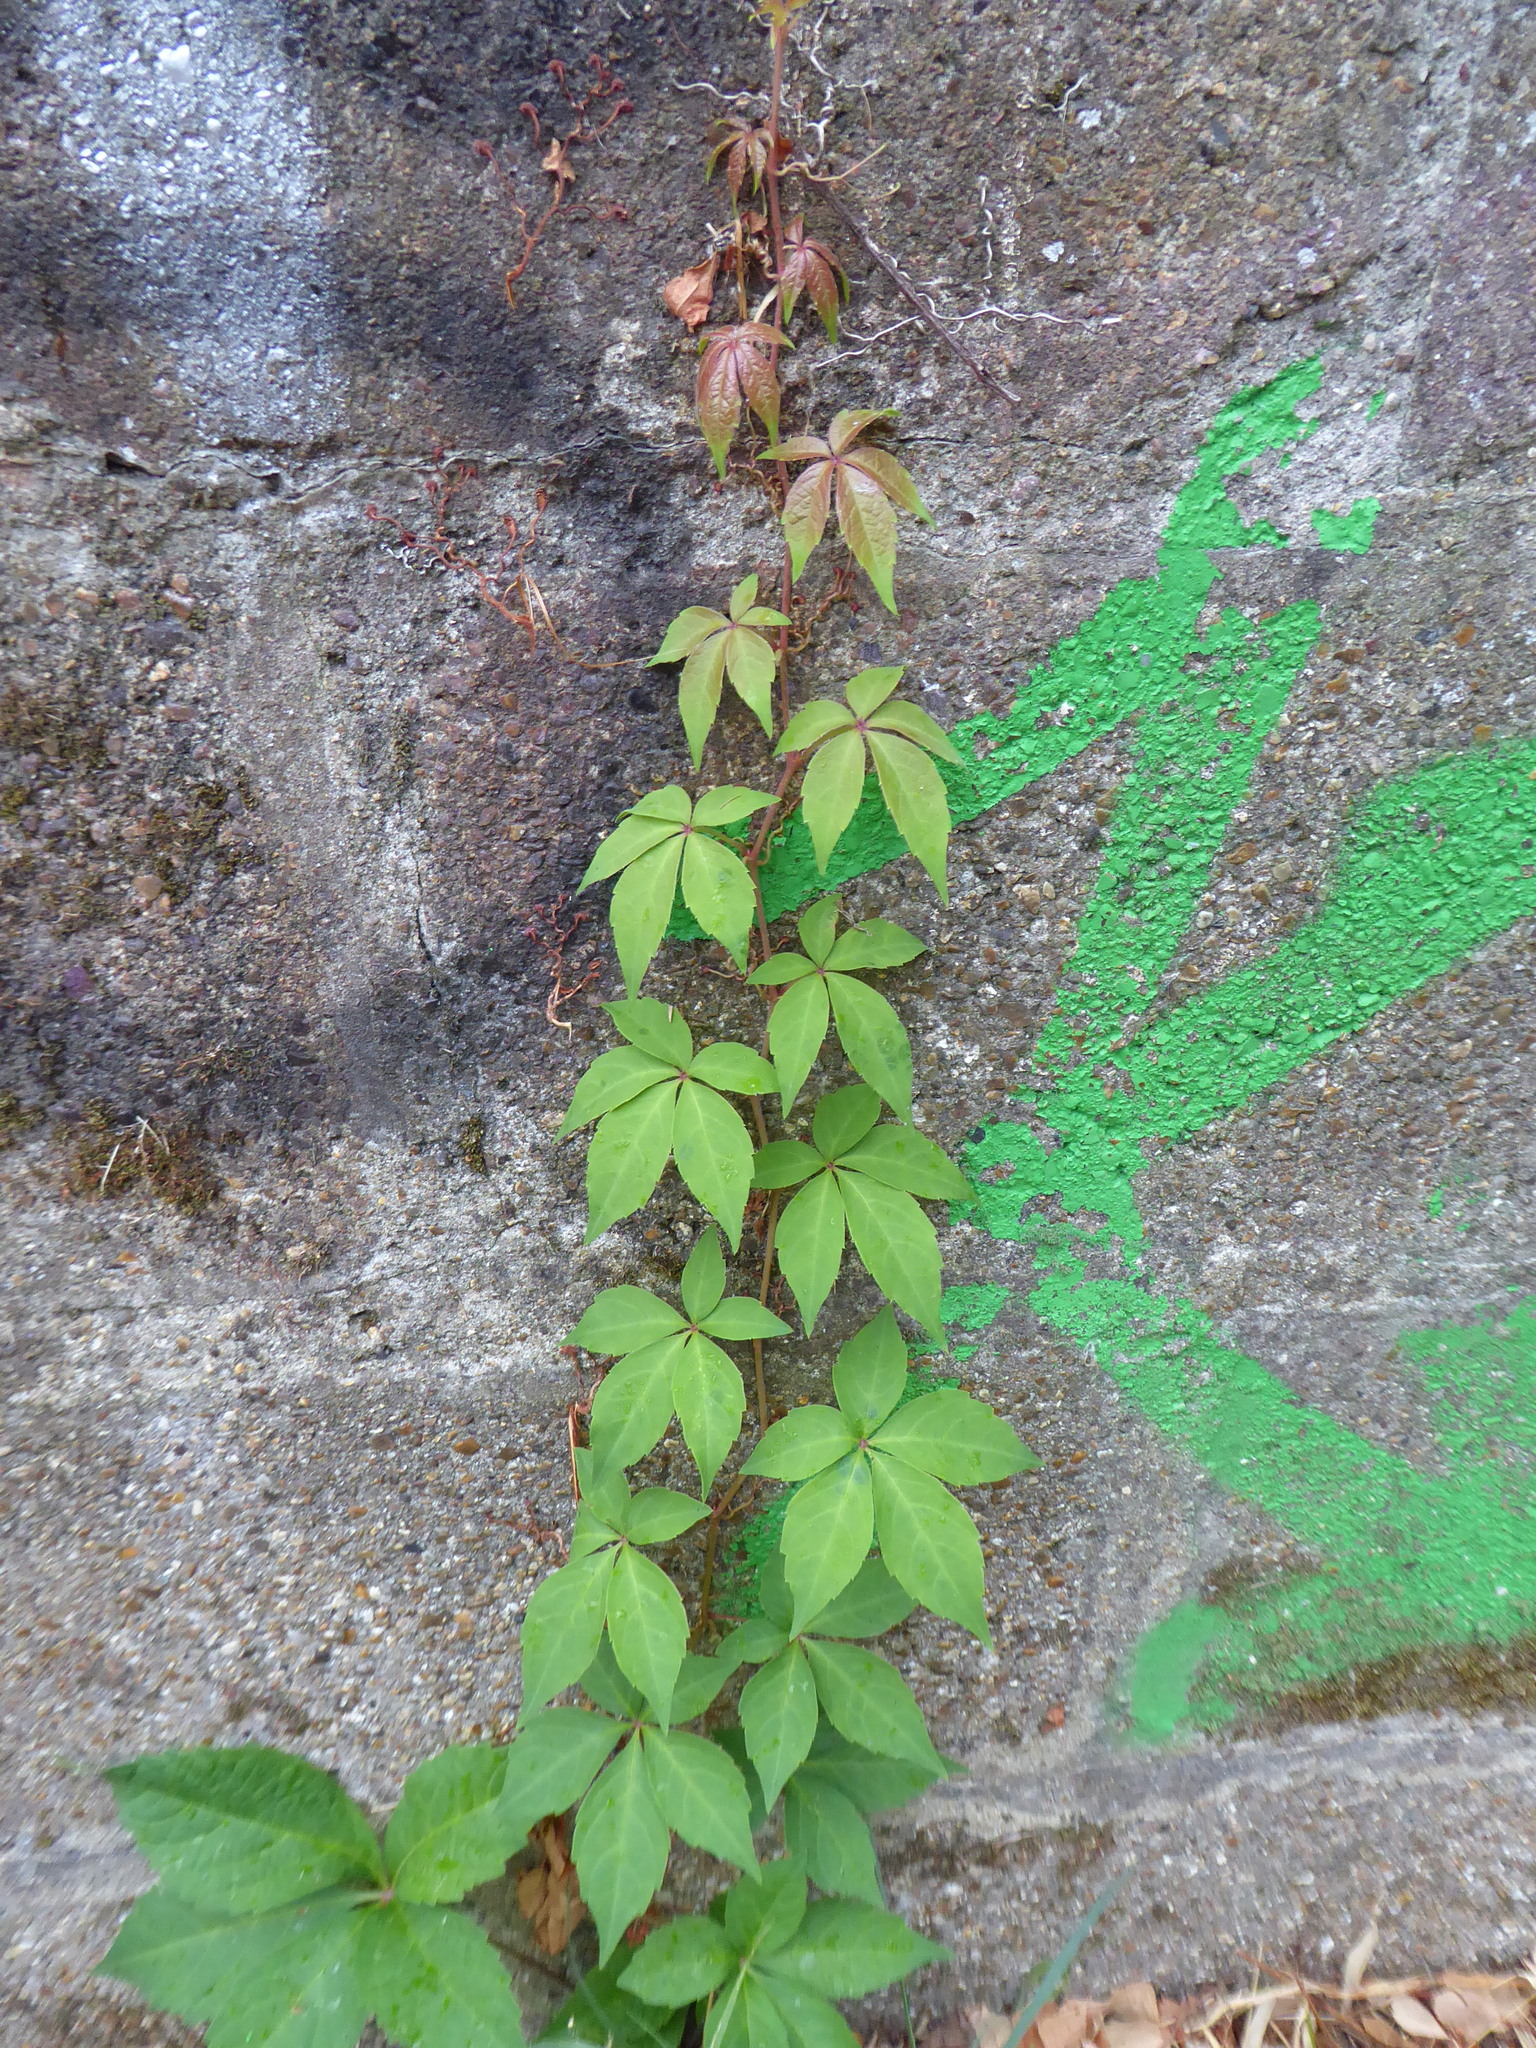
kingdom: Plantae
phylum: Tracheophyta
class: Magnoliopsida
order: Vitales
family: Vitaceae
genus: Parthenocissus
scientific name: Parthenocissus quinquefolia
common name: Virginia-creeper
